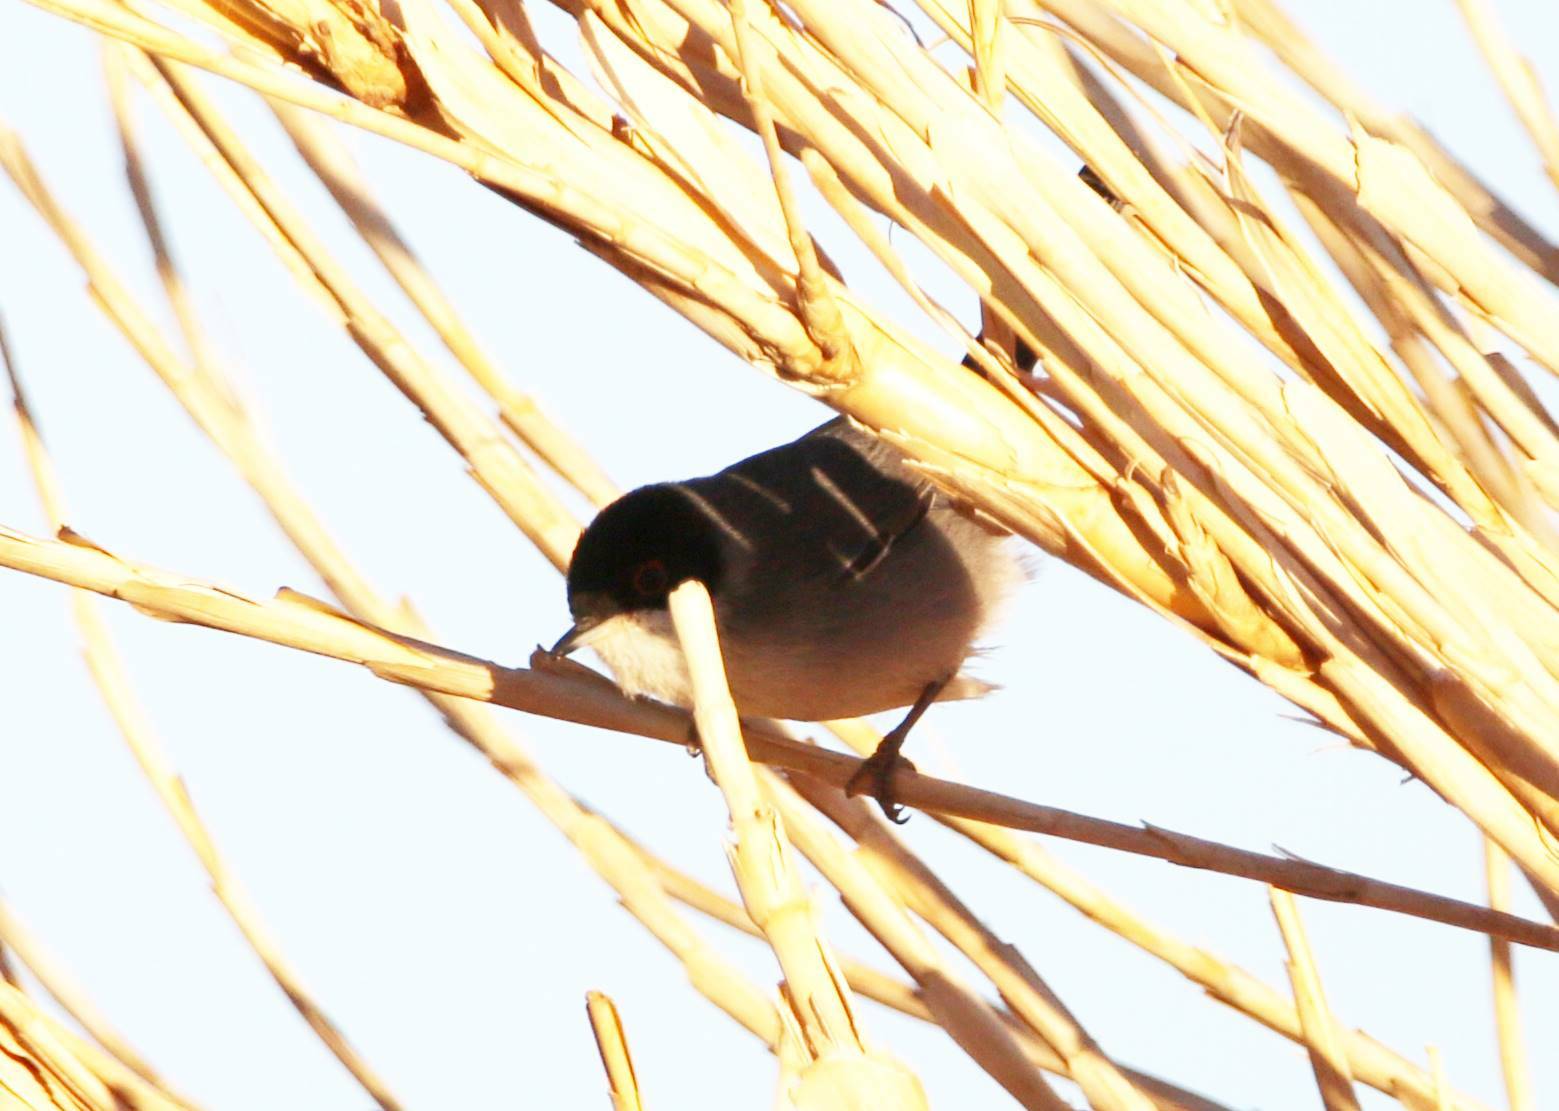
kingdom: Animalia
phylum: Chordata
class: Aves
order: Passeriformes
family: Sylviidae
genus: Curruca
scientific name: Curruca melanocephala
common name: Sardinian warbler
